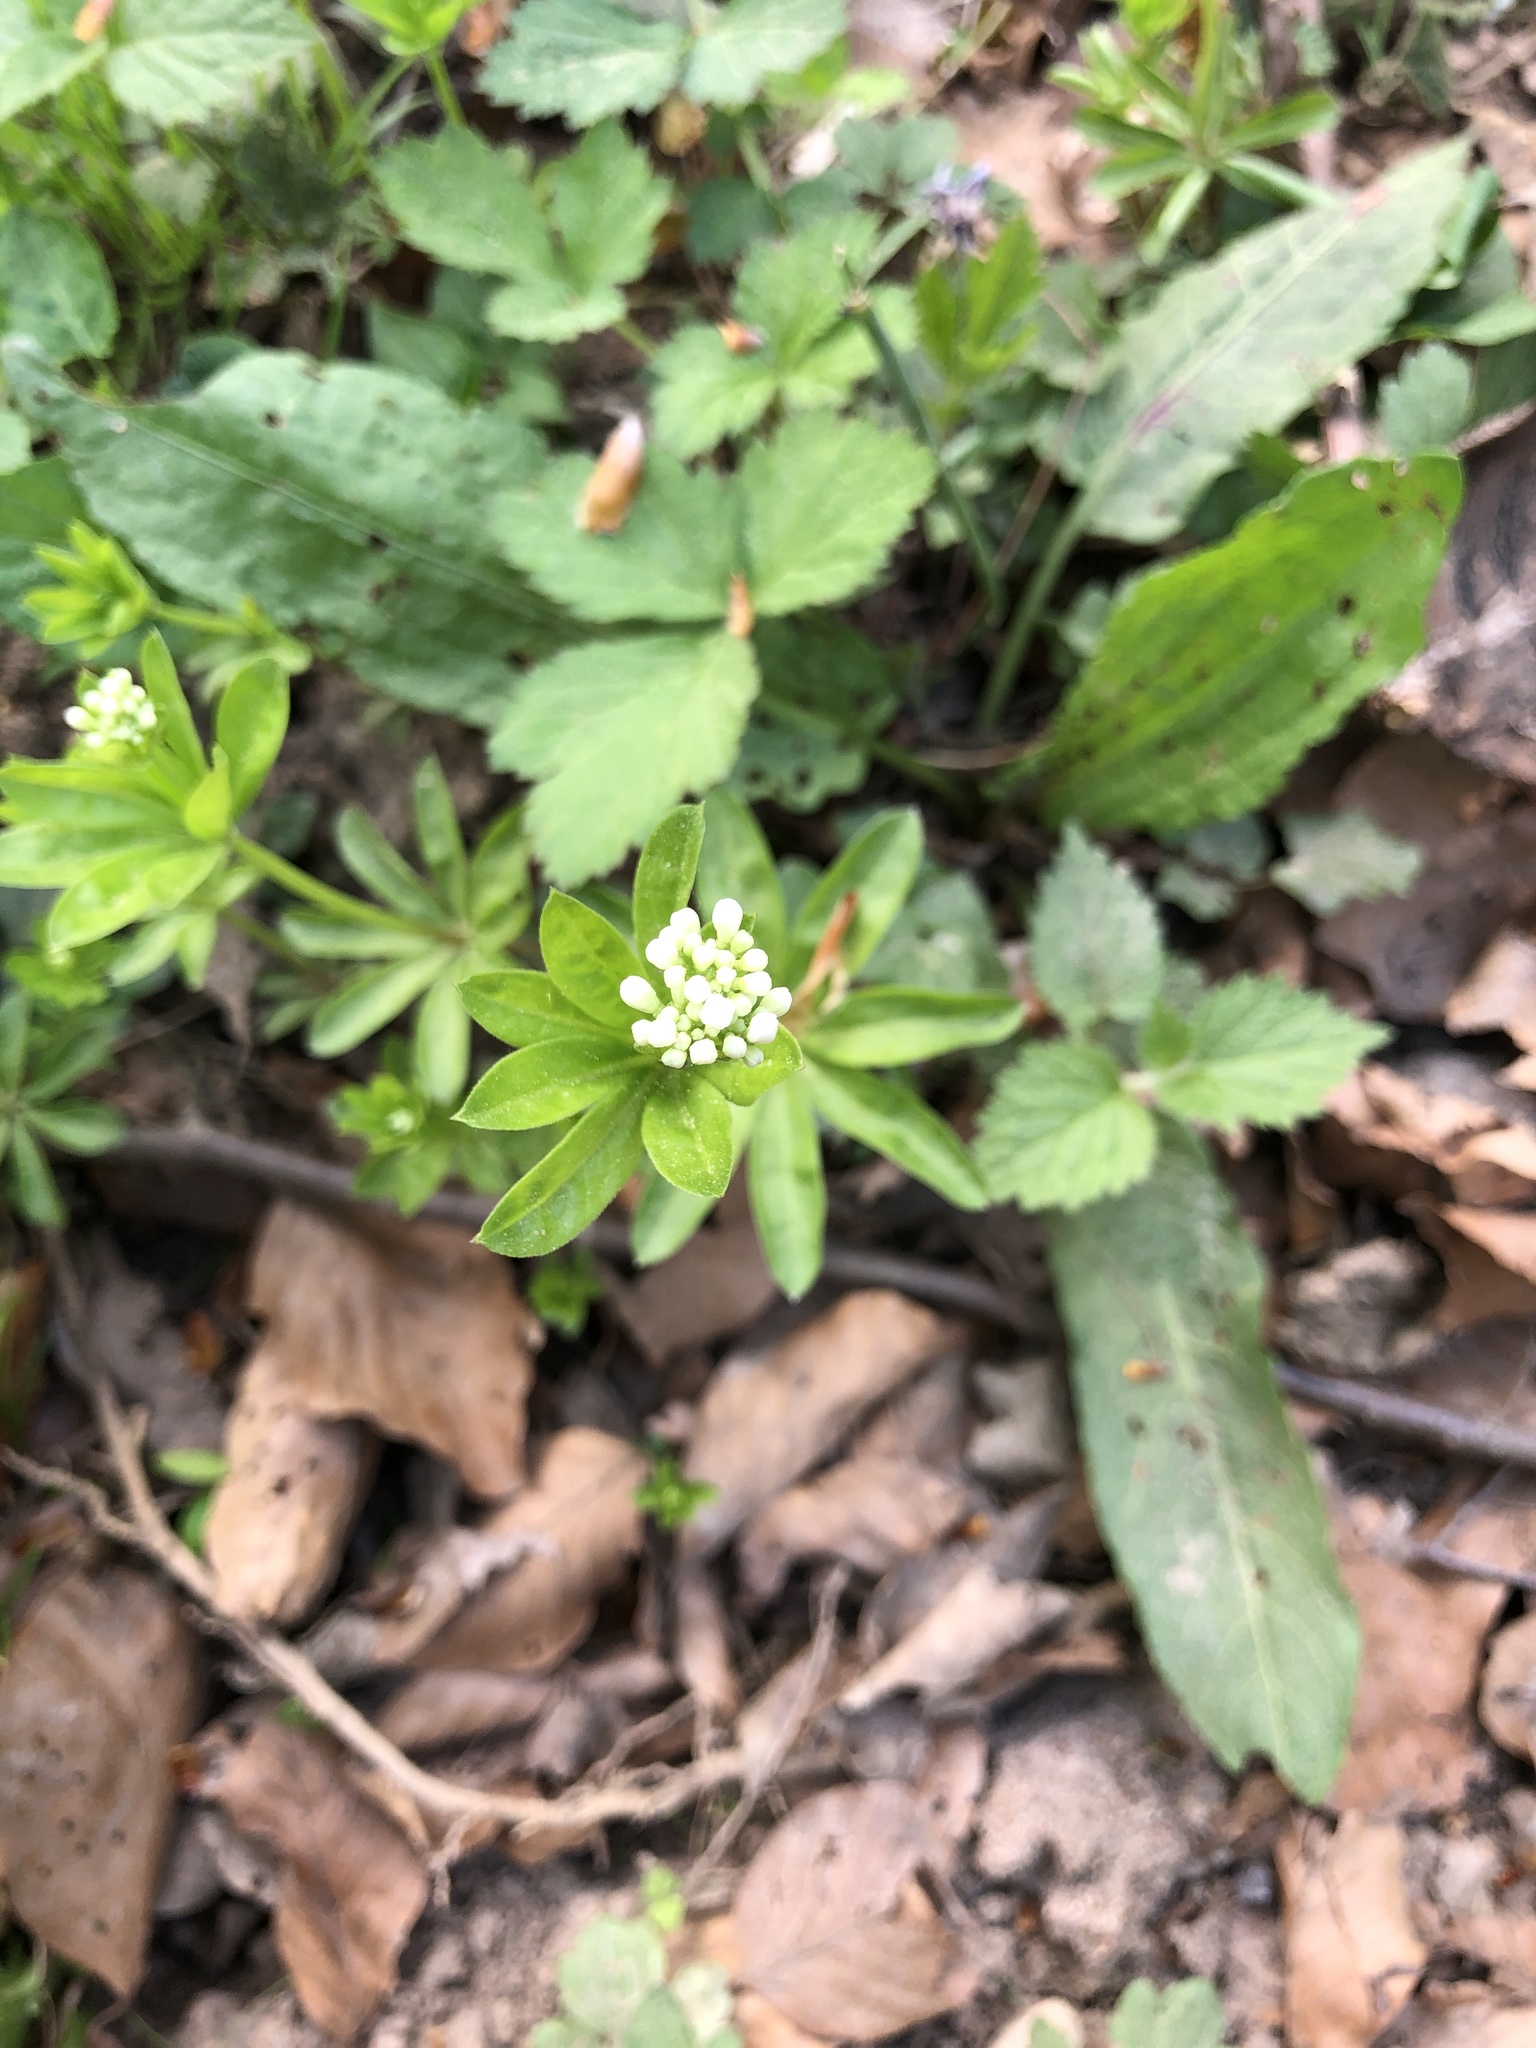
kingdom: Plantae
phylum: Tracheophyta
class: Magnoliopsida
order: Gentianales
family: Rubiaceae
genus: Galium
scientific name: Galium odoratum
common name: Sweet woodruff
